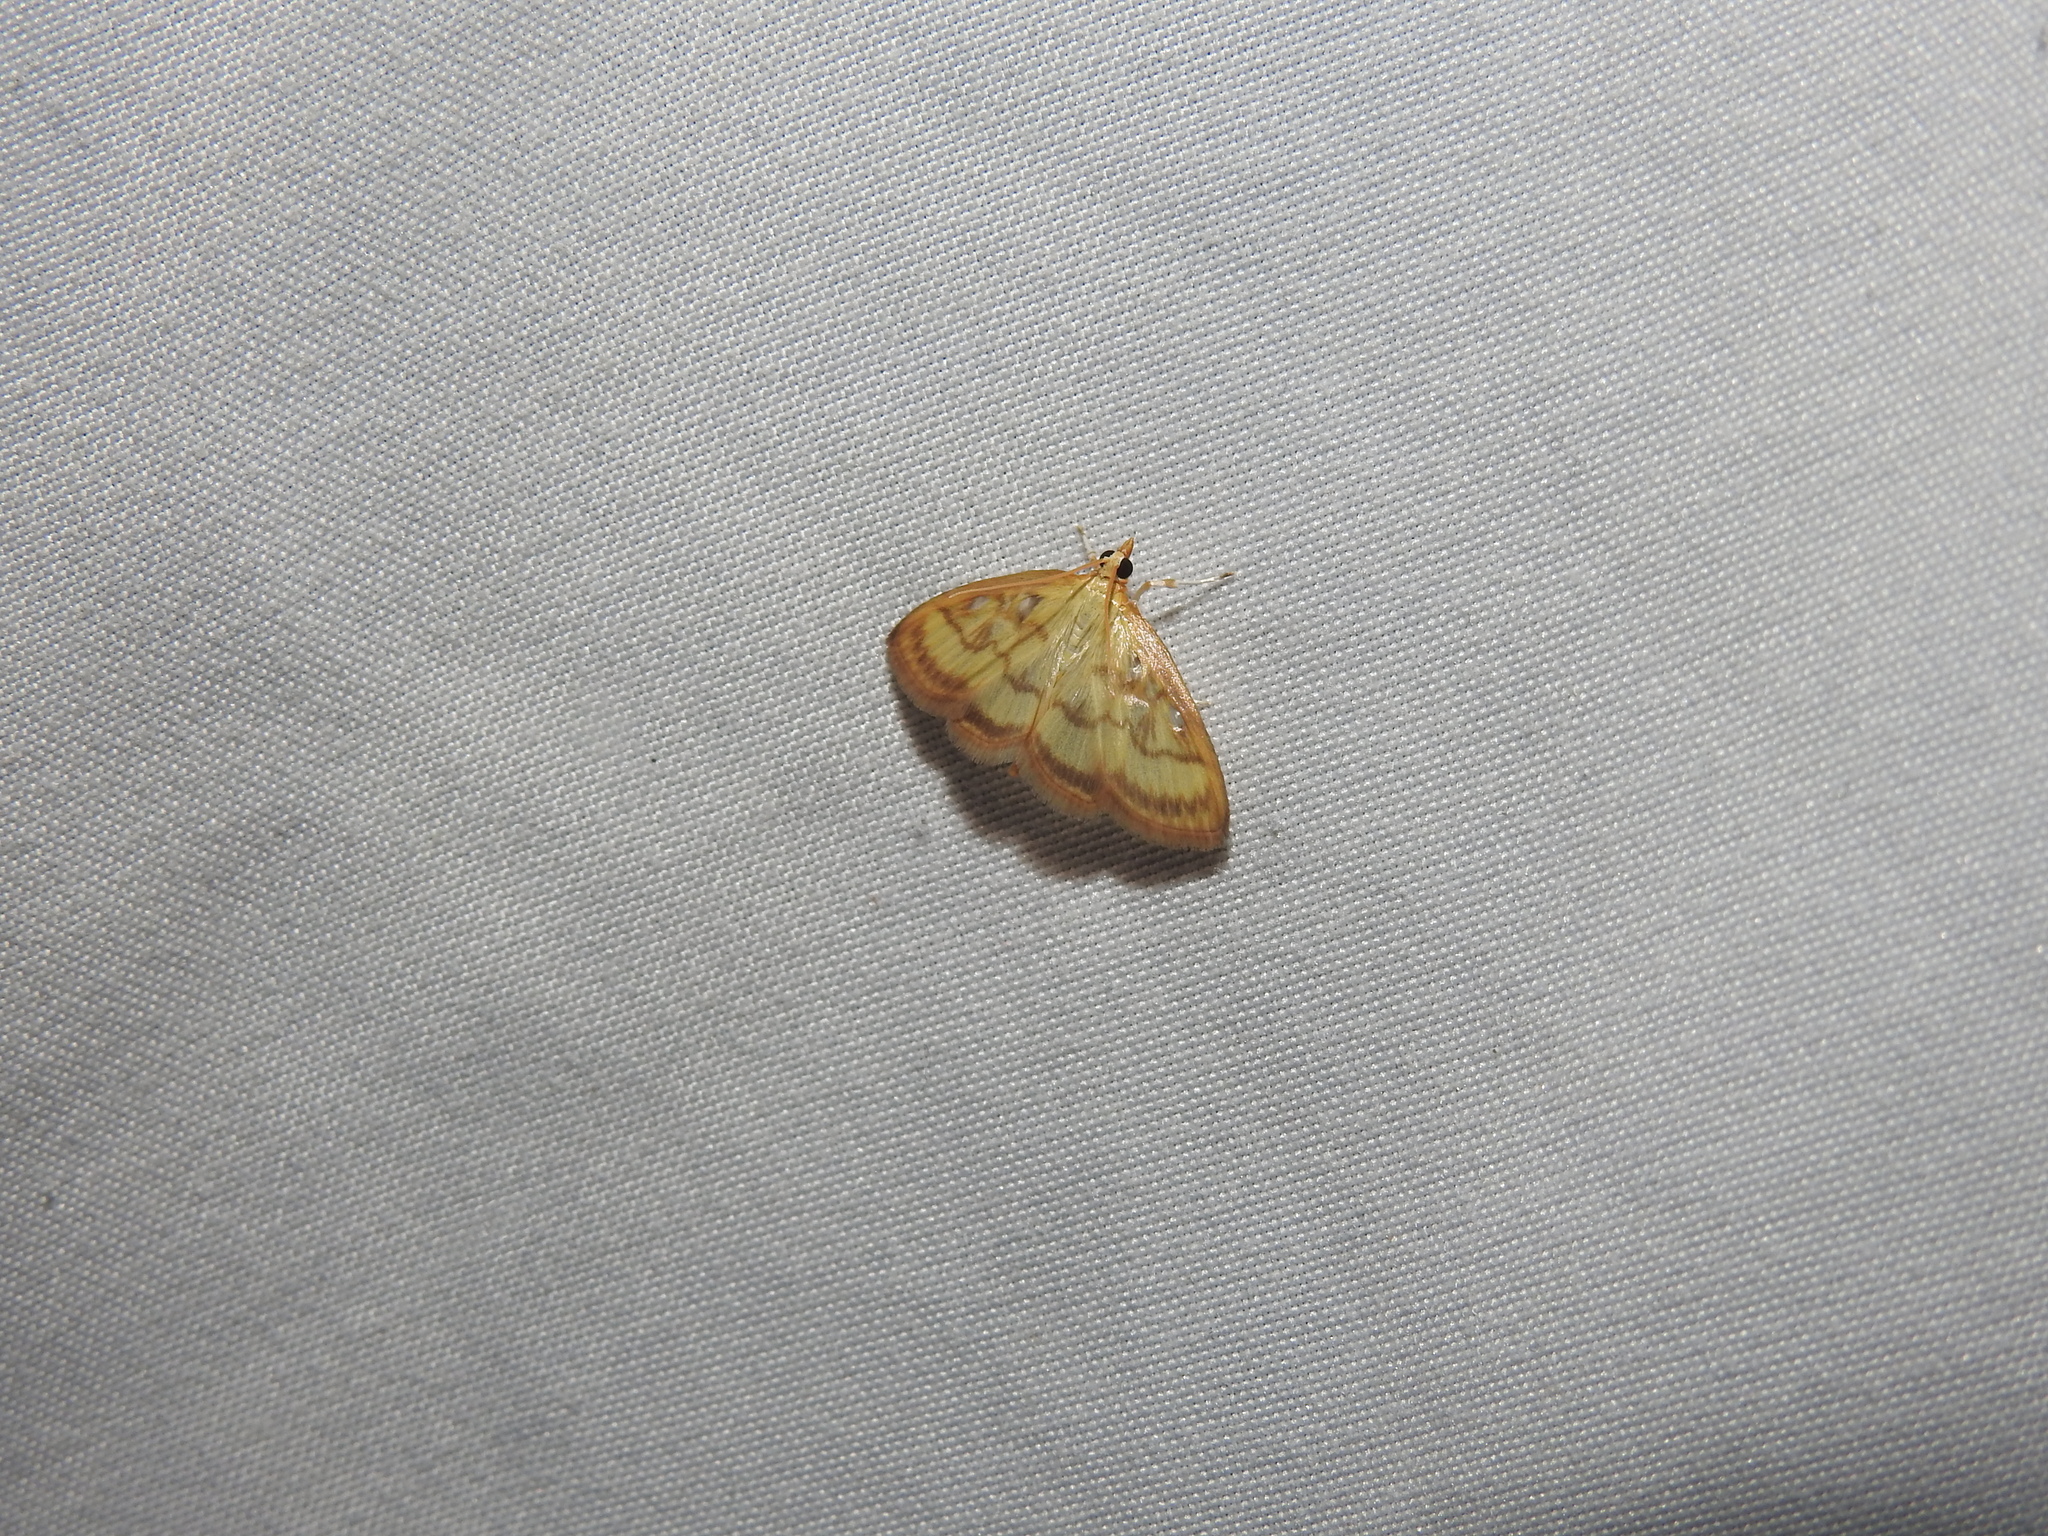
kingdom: Animalia
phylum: Arthropoda
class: Insecta
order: Lepidoptera
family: Crambidae
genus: Crocidophora
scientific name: Crocidophora tuberculalis
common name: Pale-winged crocidiphora moth
